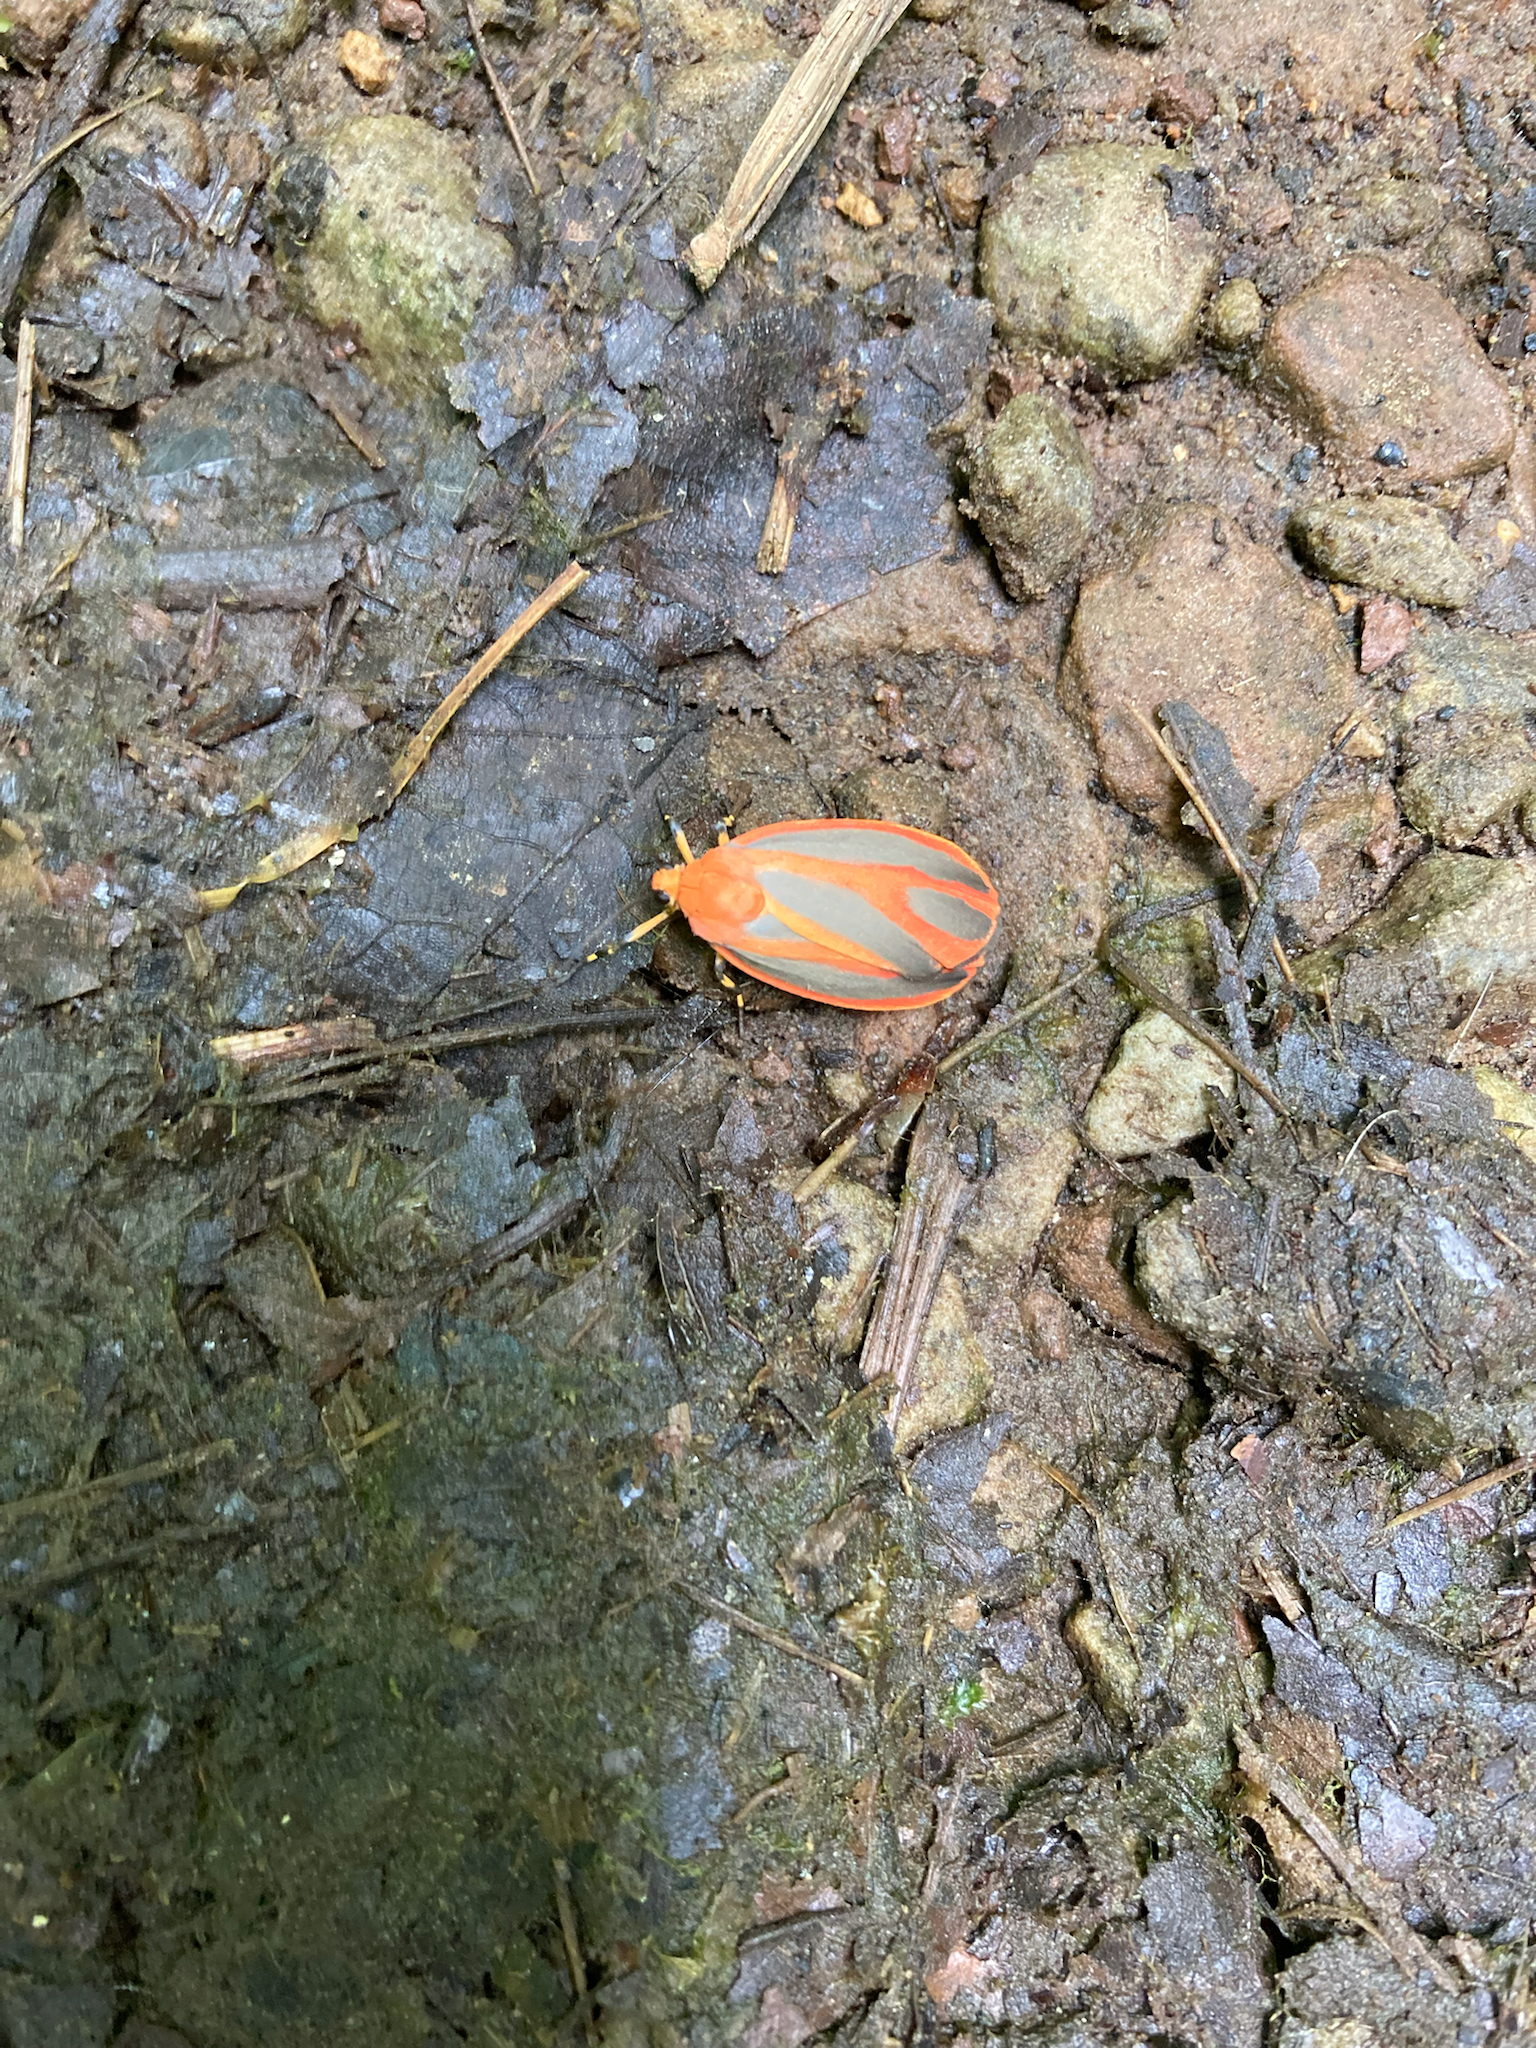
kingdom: Animalia
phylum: Arthropoda
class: Insecta
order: Lepidoptera
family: Erebidae
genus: Hypoprepia
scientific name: Hypoprepia miniata
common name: Scarlet-winged lichen moth
